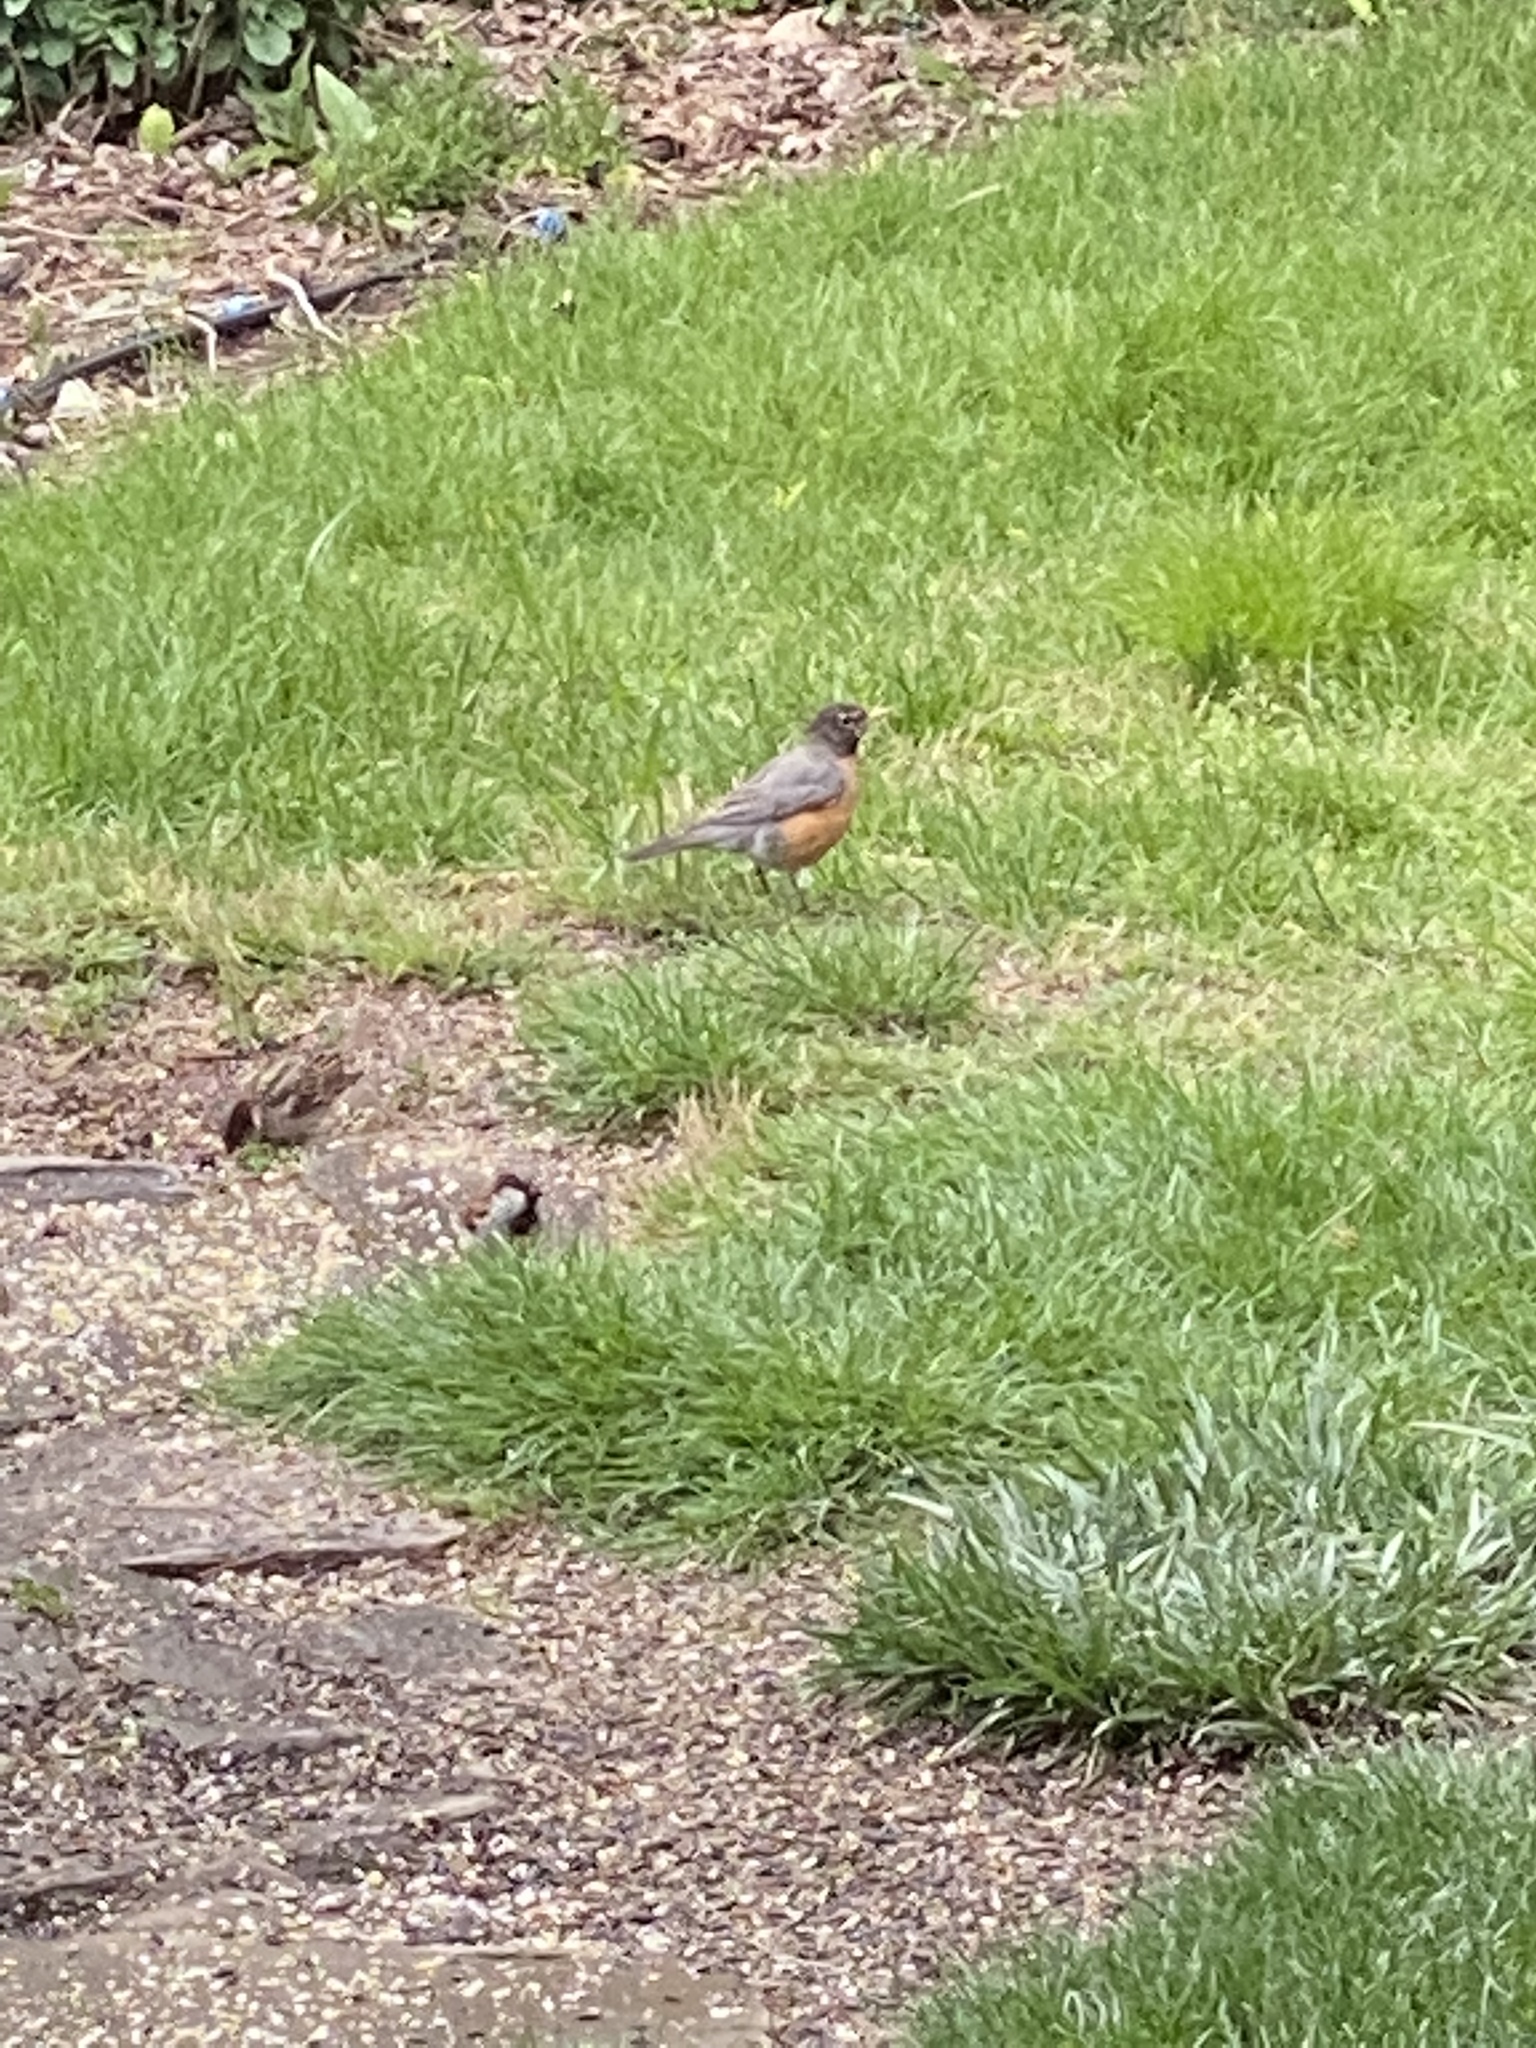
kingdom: Animalia
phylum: Chordata
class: Aves
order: Passeriformes
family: Turdidae
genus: Turdus
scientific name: Turdus migratorius
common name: American robin
